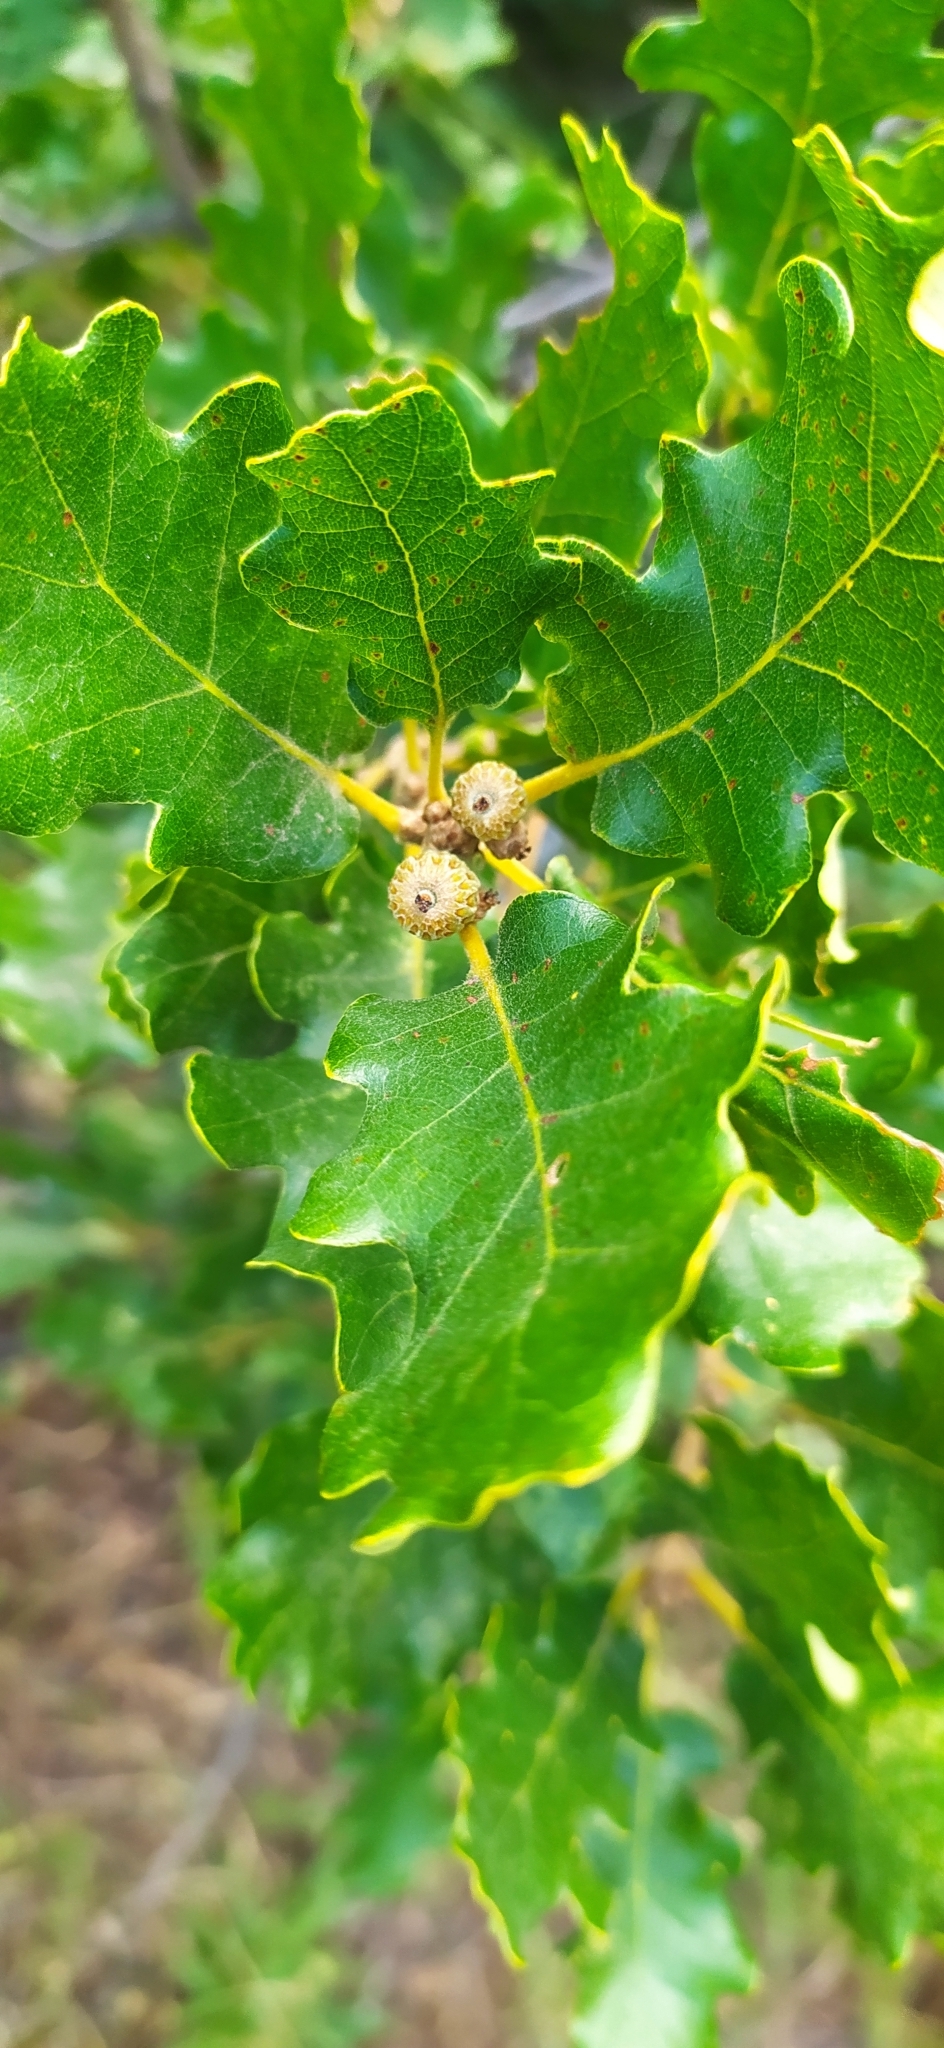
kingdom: Plantae
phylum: Tracheophyta
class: Magnoliopsida
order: Fagales
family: Fagaceae
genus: Quercus
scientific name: Quercus petraea
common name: Sessile oak
